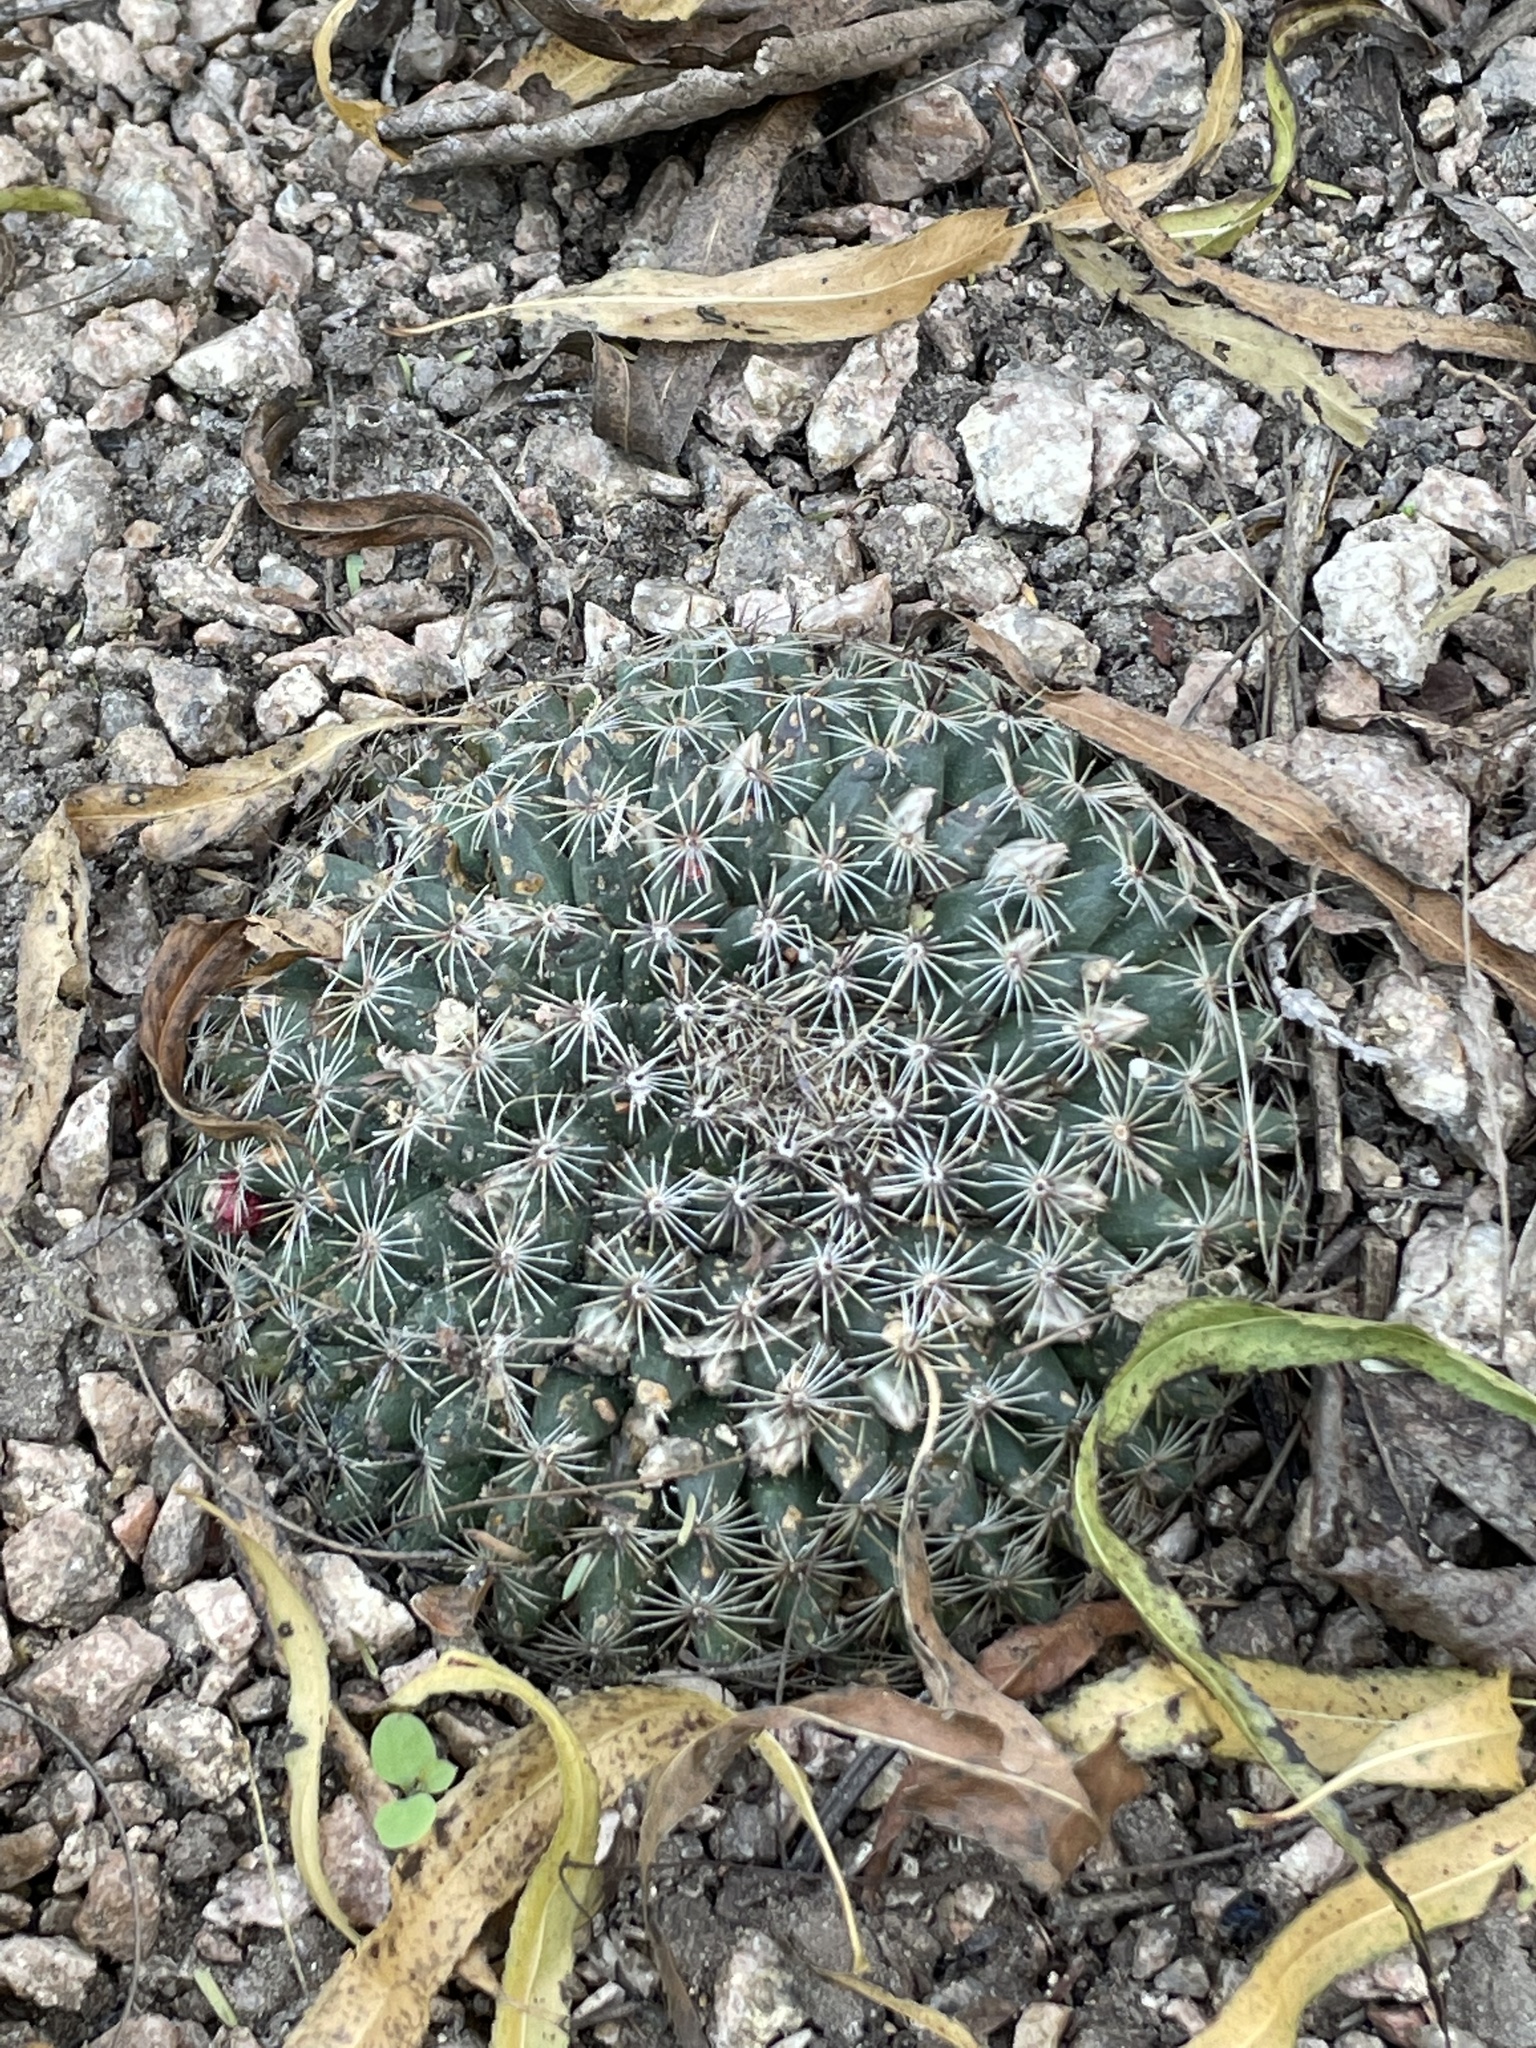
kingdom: Plantae
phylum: Tracheophyta
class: Magnoliopsida
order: Caryophyllales
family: Cactaceae
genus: Mammillaria
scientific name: Mammillaria heyderi
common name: Little nipple cactus
